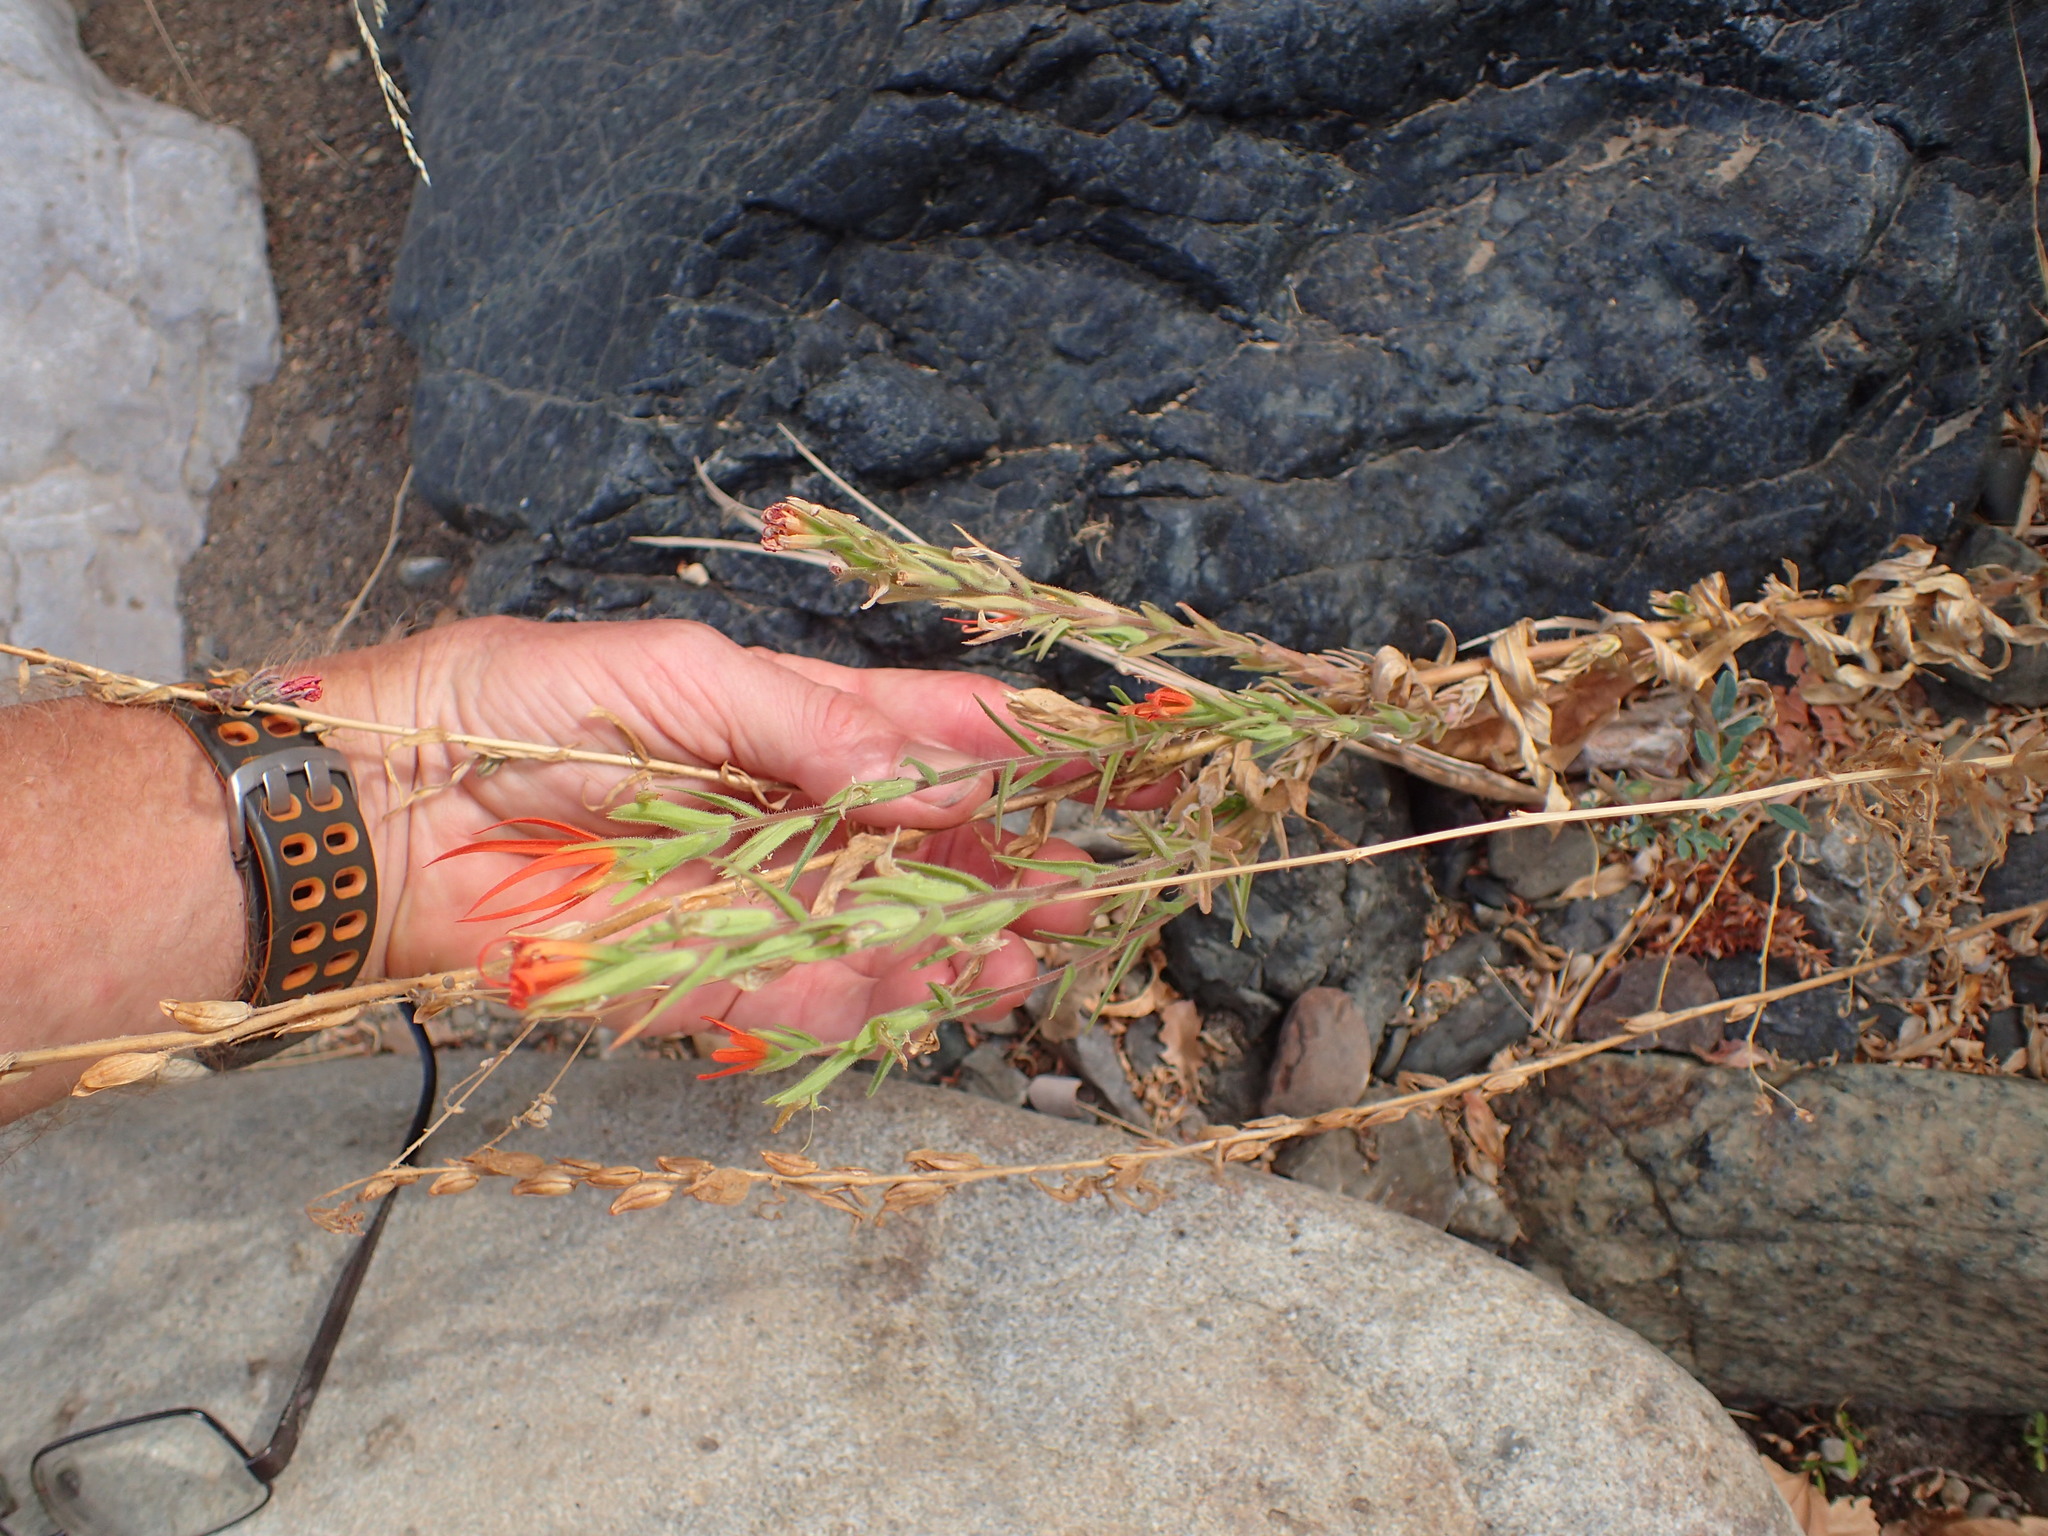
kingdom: Plantae
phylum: Tracheophyta
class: Magnoliopsida
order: Lamiales
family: Orobanchaceae
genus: Castilleja
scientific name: Castilleja minor
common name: Seep paintbrush
